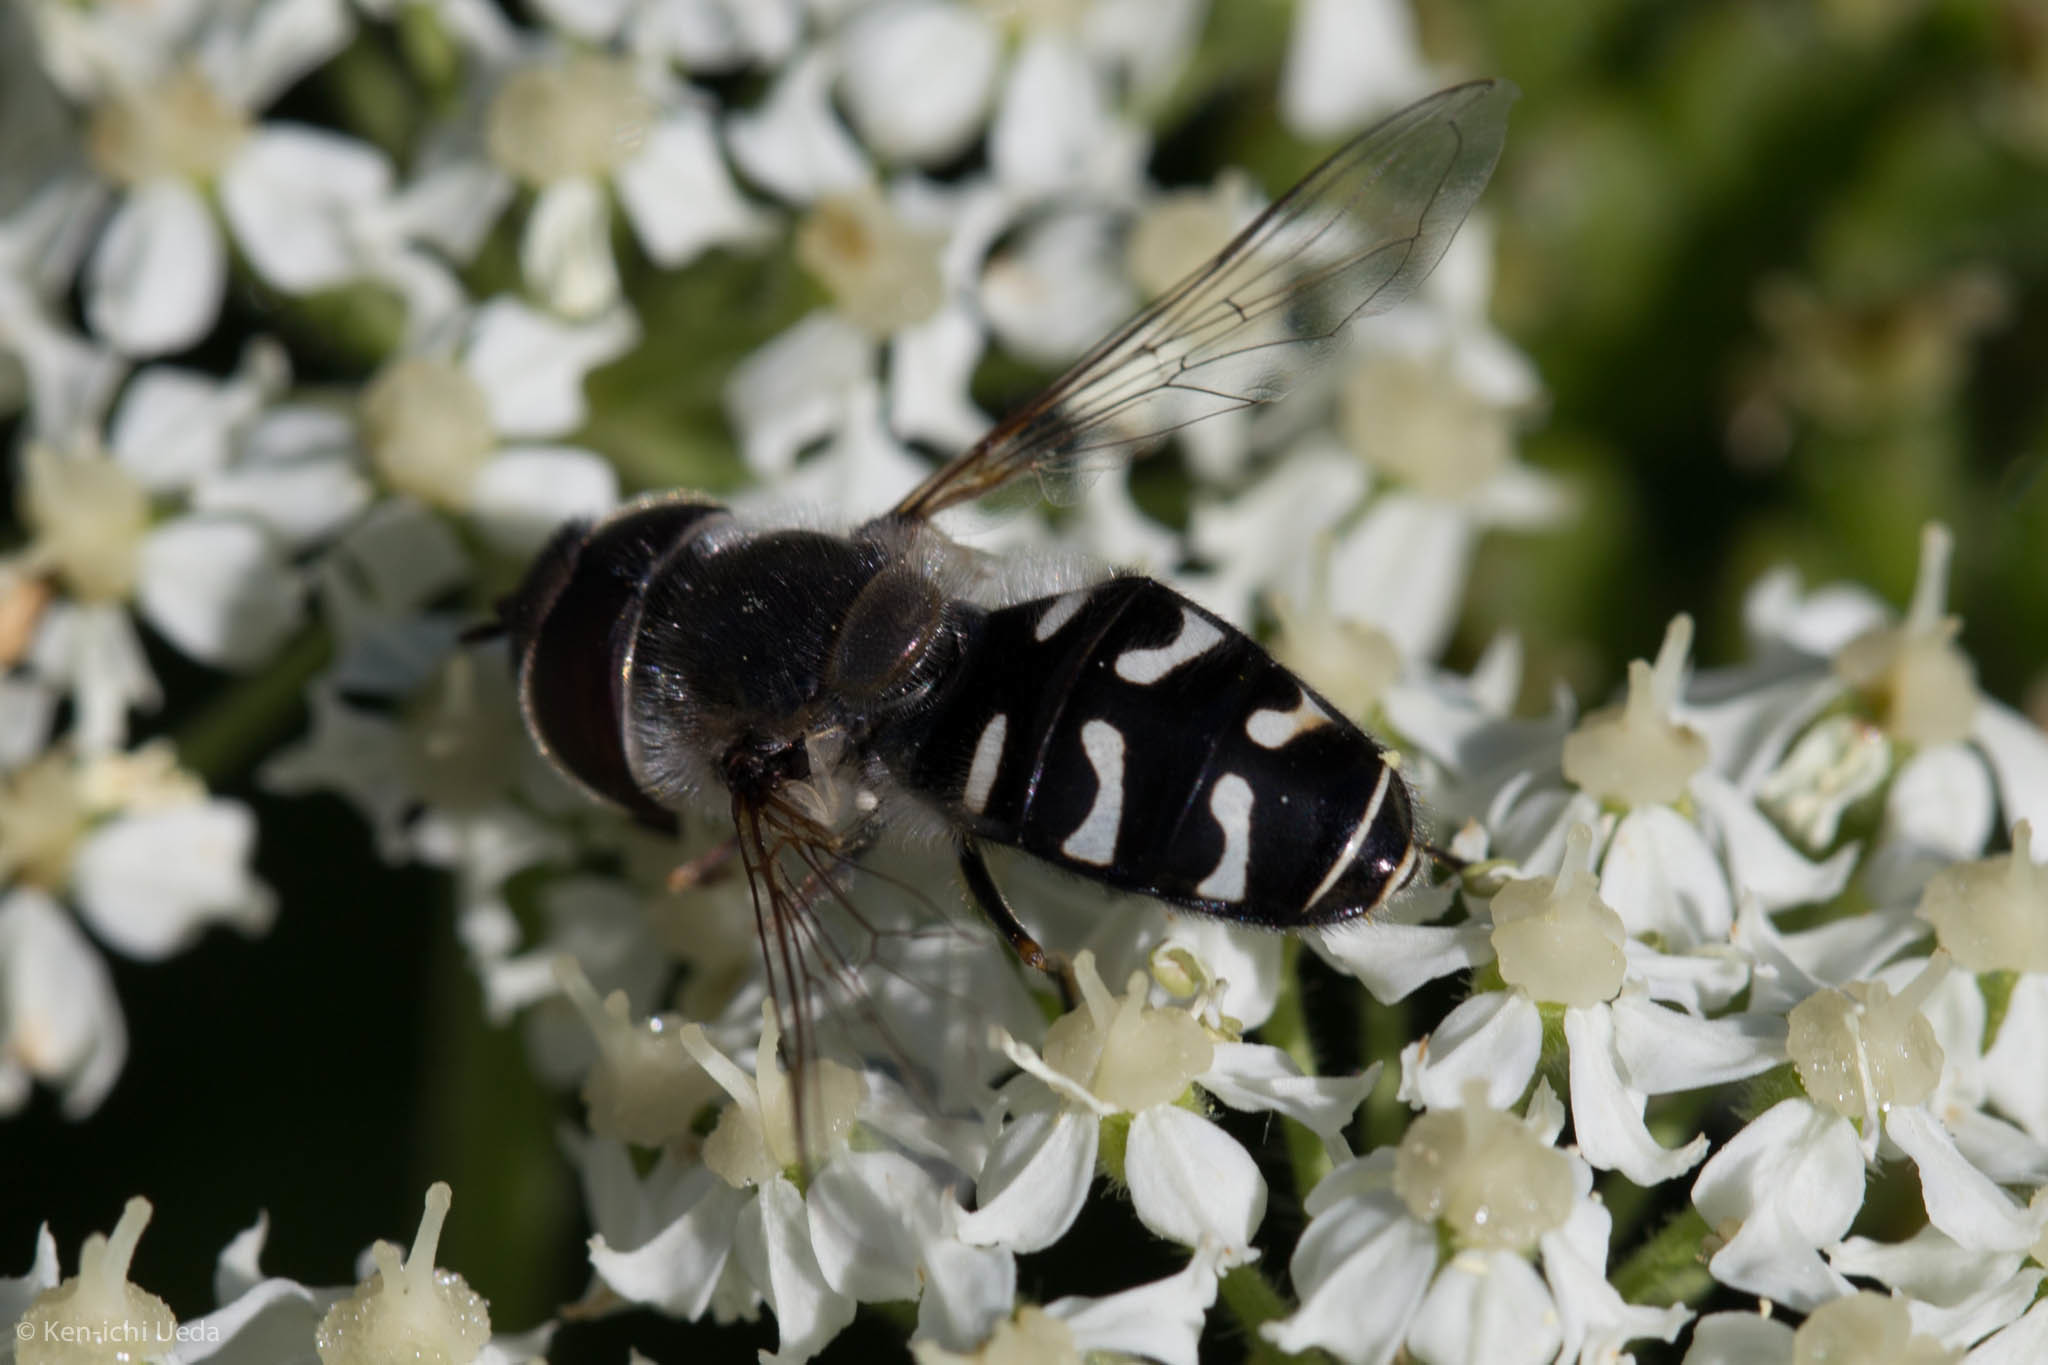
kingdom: Animalia
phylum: Arthropoda
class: Insecta
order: Diptera
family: Syrphidae
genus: Scaeva
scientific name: Scaeva affinis
